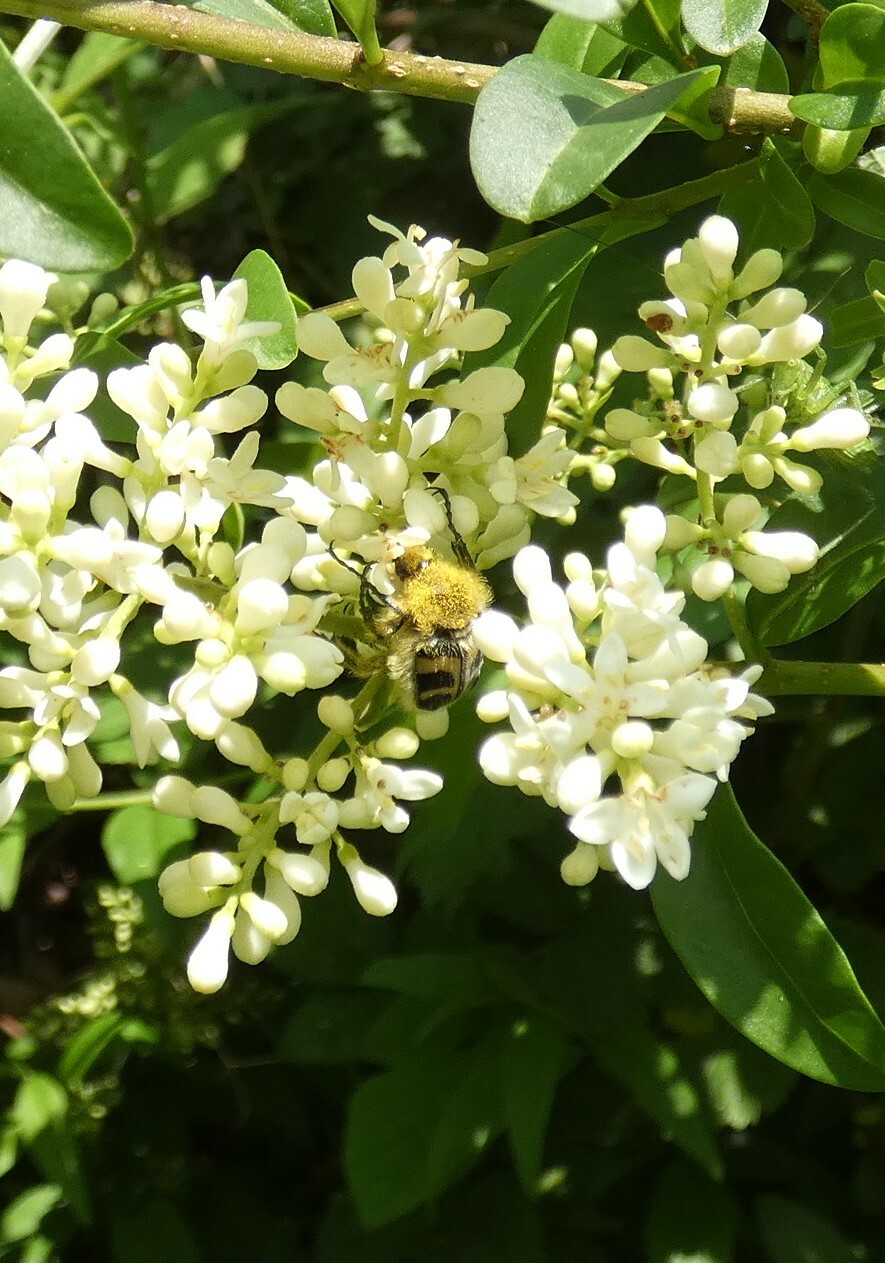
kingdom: Animalia
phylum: Arthropoda
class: Insecta
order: Coleoptera
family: Scarabaeidae
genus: Trichius
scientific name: Trichius fasciatus
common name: Bee beetle
